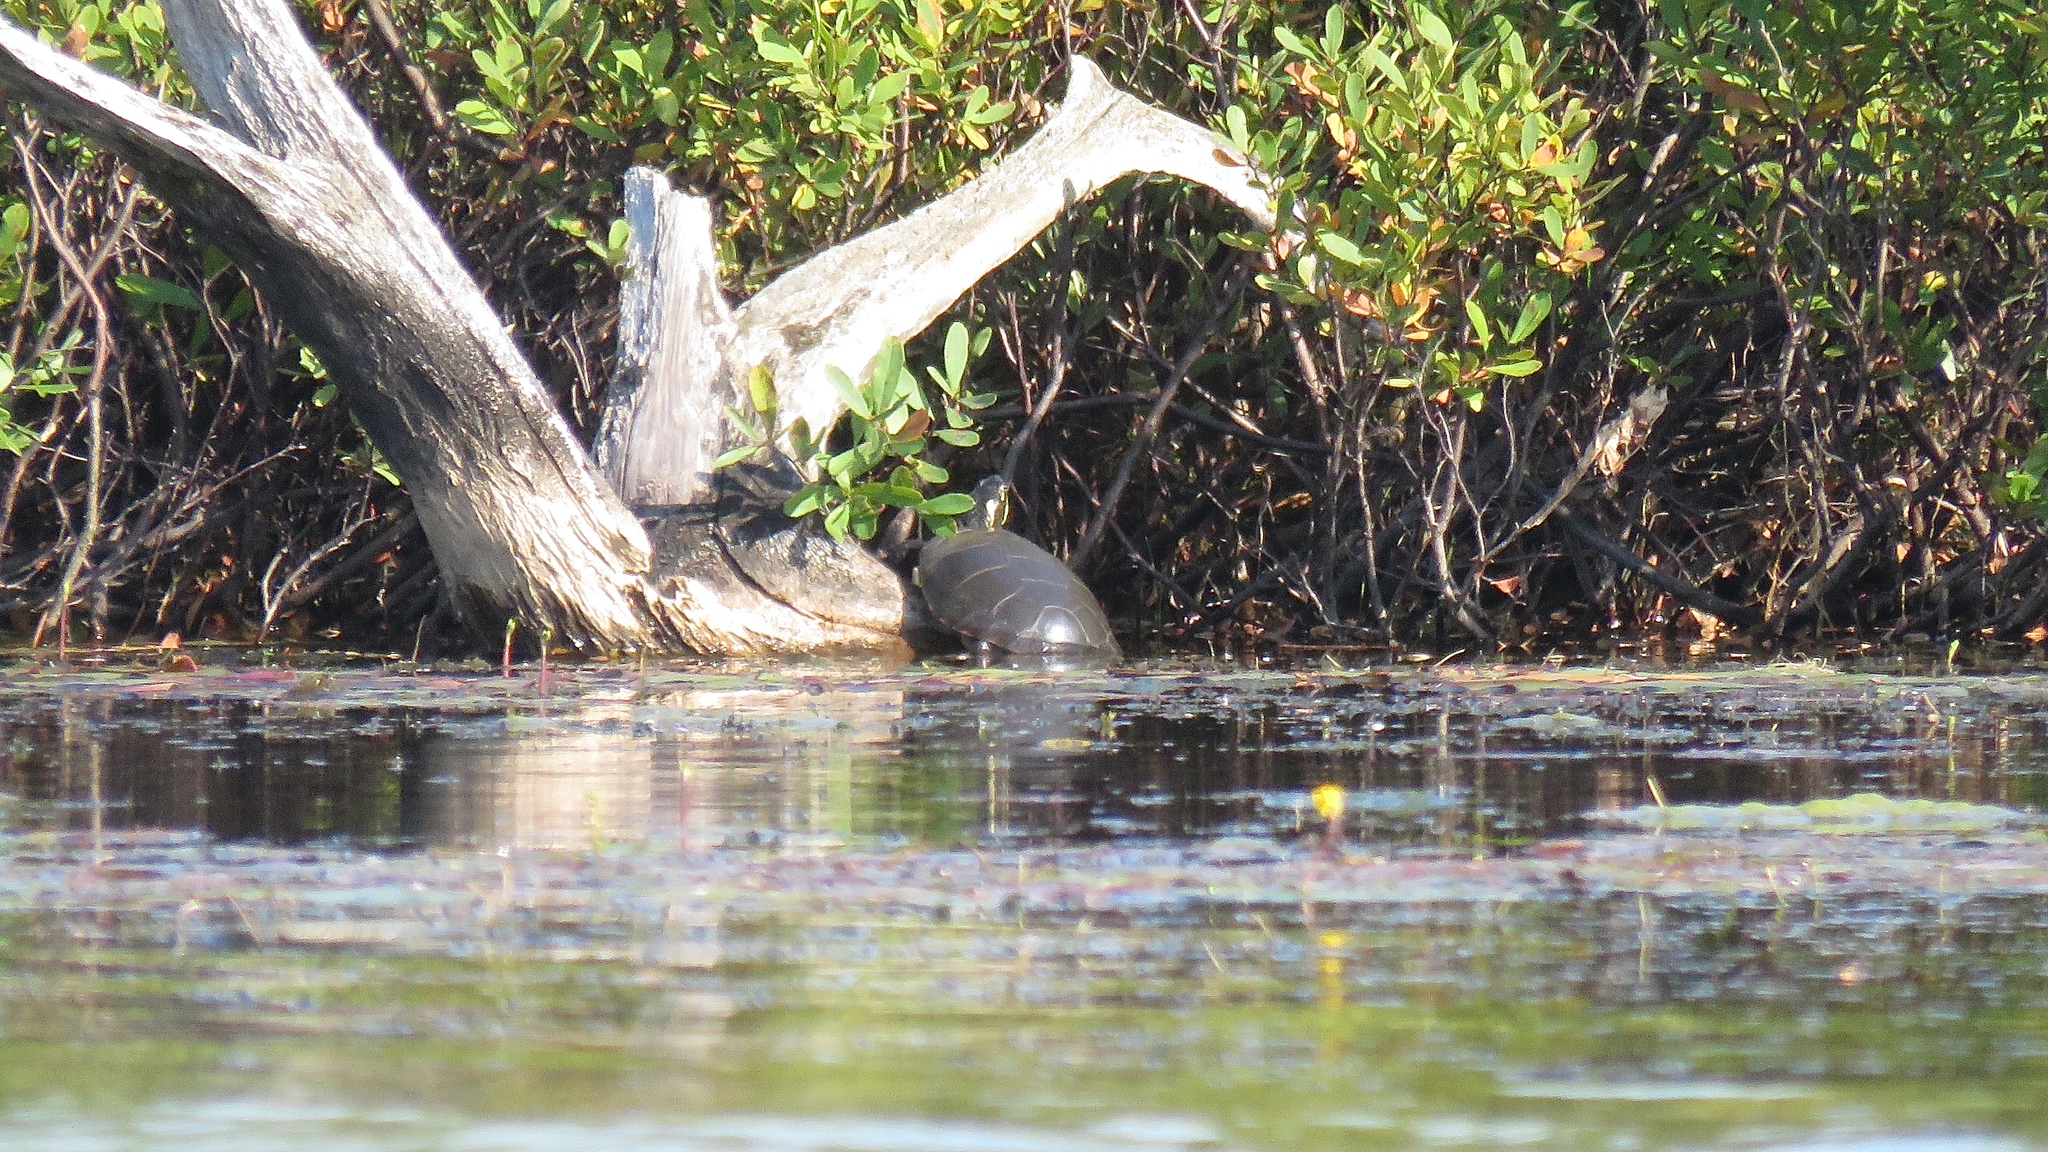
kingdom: Animalia
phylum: Chordata
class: Testudines
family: Emydidae
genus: Chrysemys
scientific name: Chrysemys picta
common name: Painted turtle
